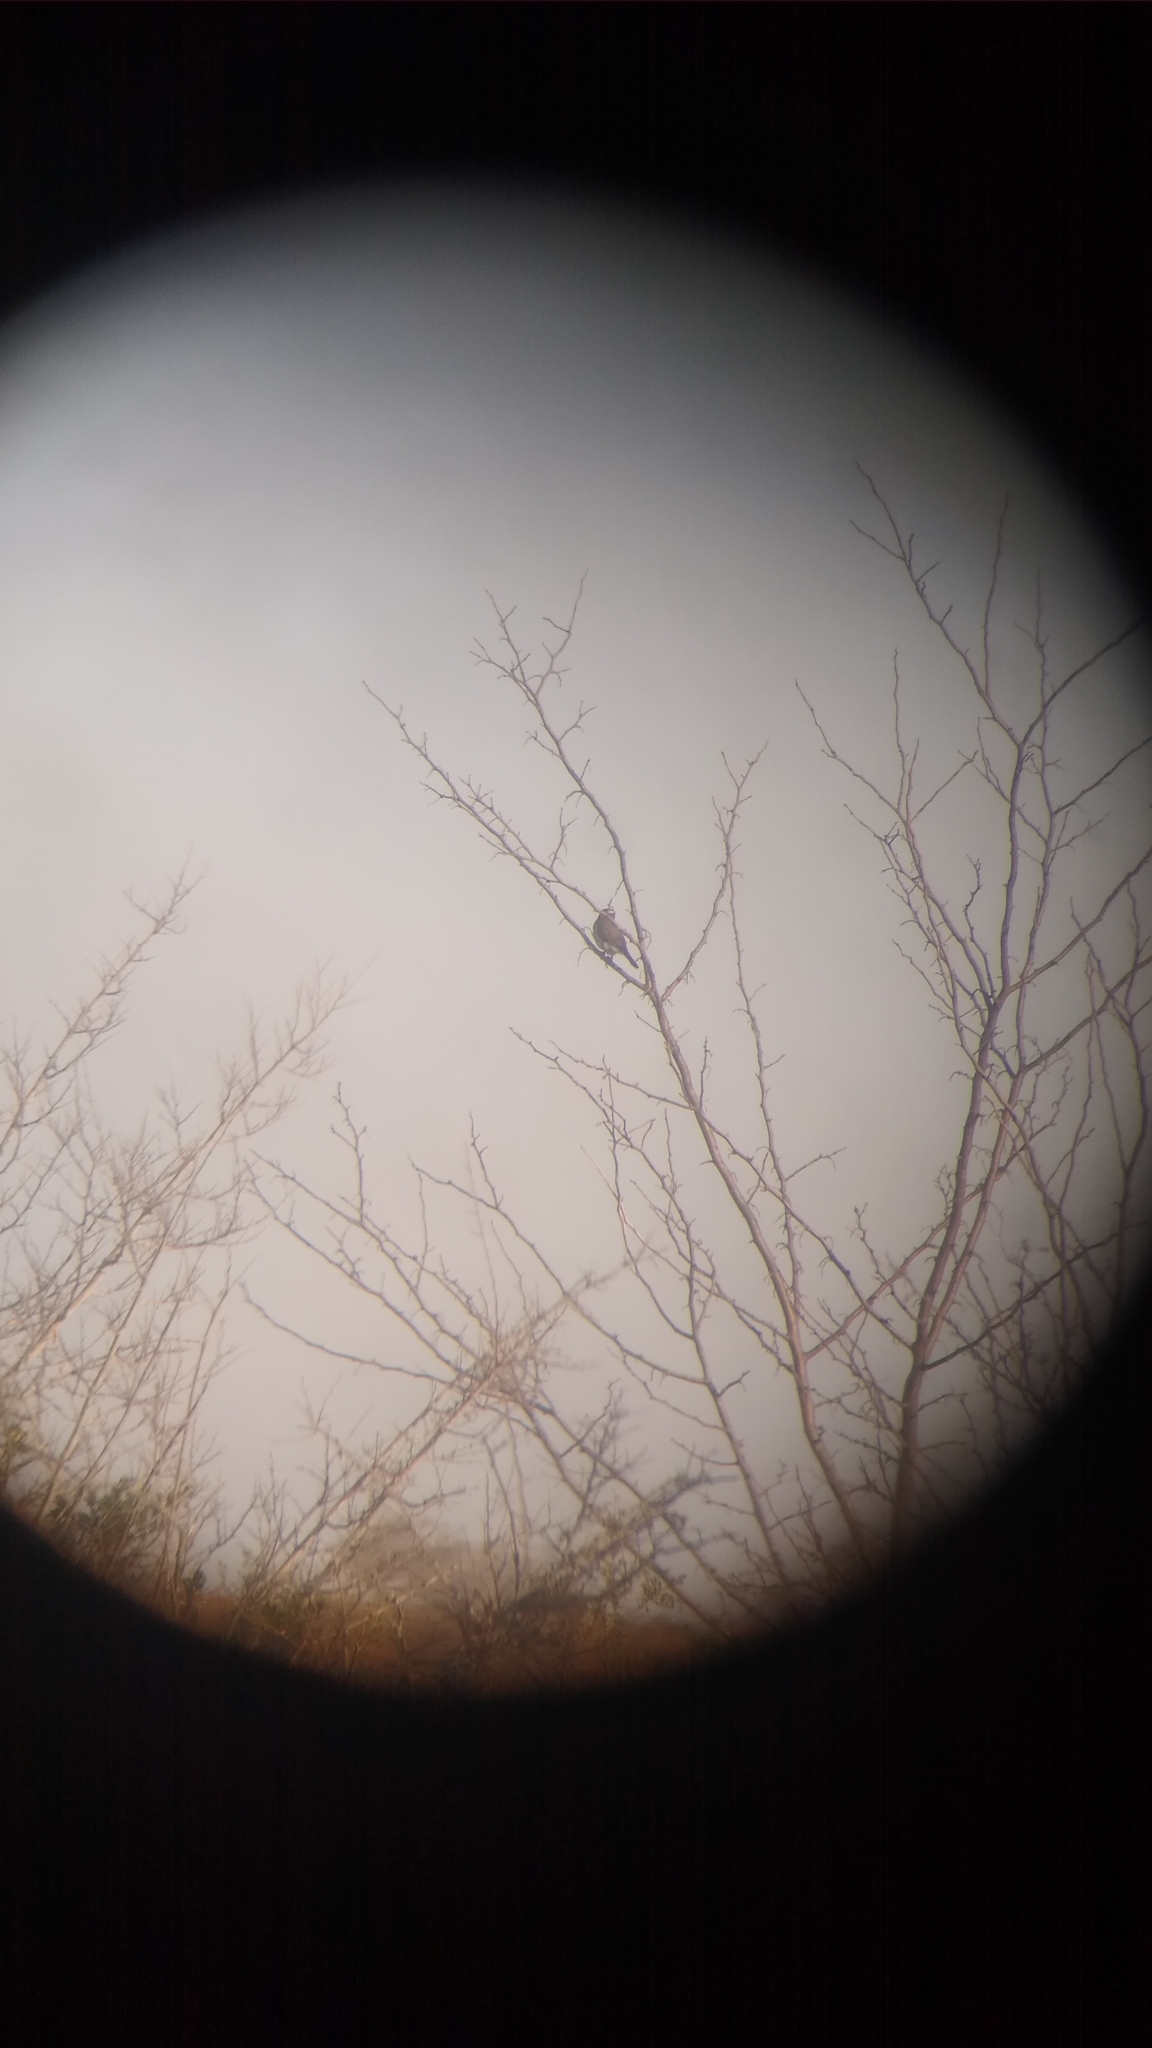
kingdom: Animalia
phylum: Chordata
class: Aves
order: Falconiformes
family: Falconidae
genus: Spiziapteryx
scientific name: Spiziapteryx circumcincta
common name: Spot-winged falconet
